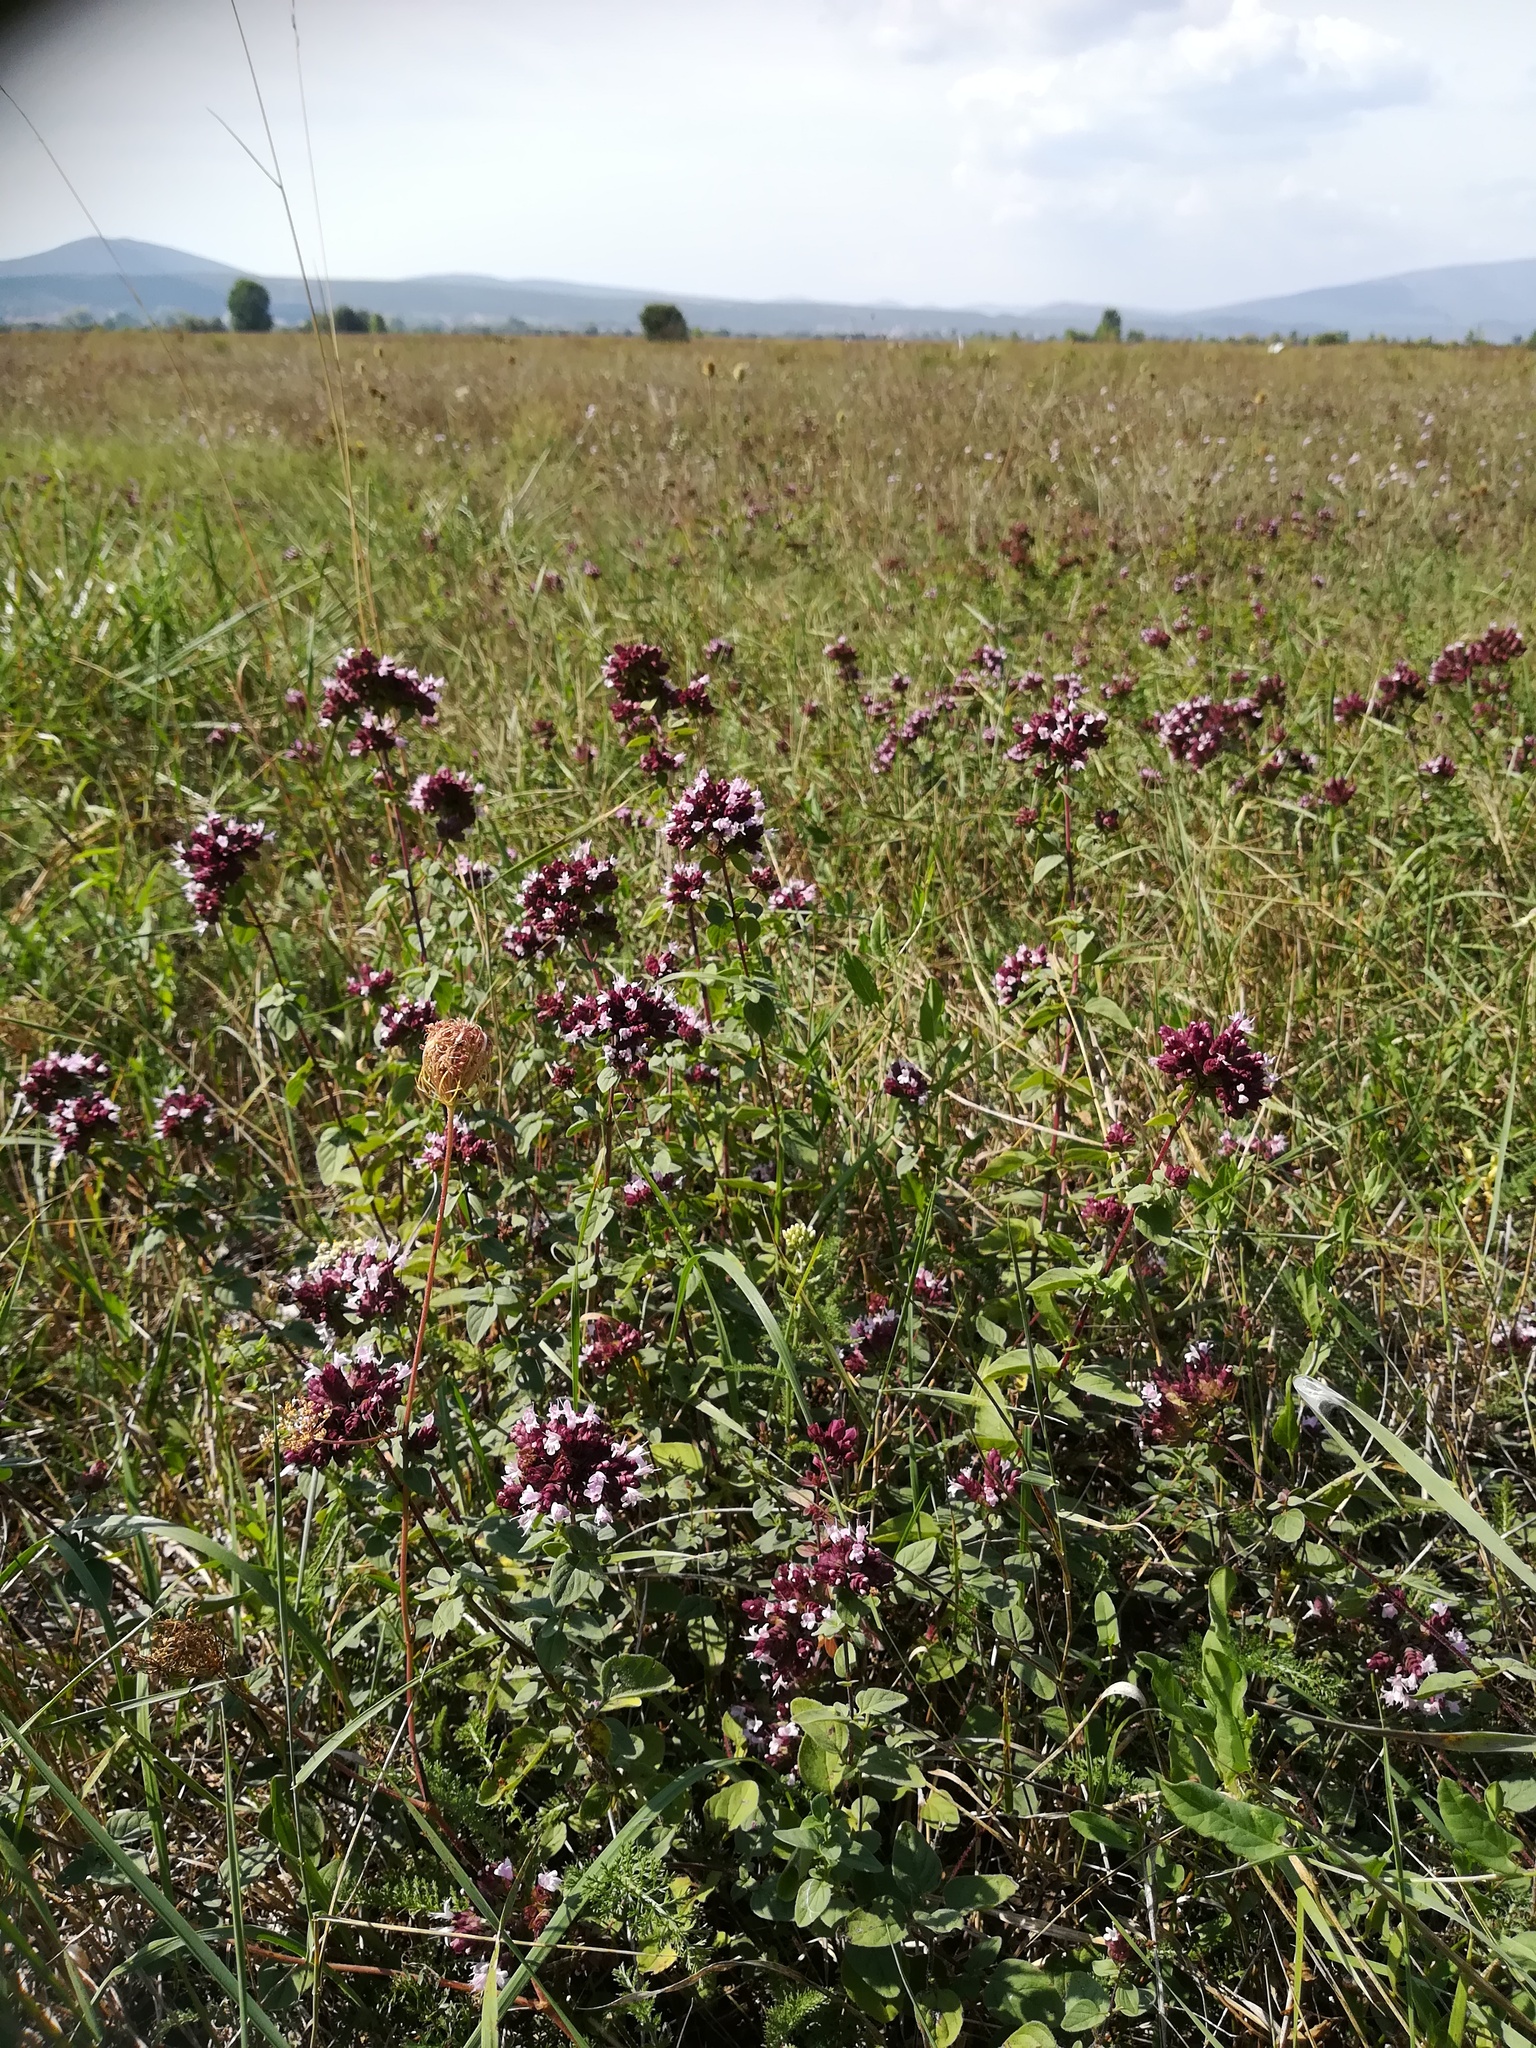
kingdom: Plantae
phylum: Tracheophyta
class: Magnoliopsida
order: Lamiales
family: Lamiaceae
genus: Origanum
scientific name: Origanum vulgare
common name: Wild marjoram
